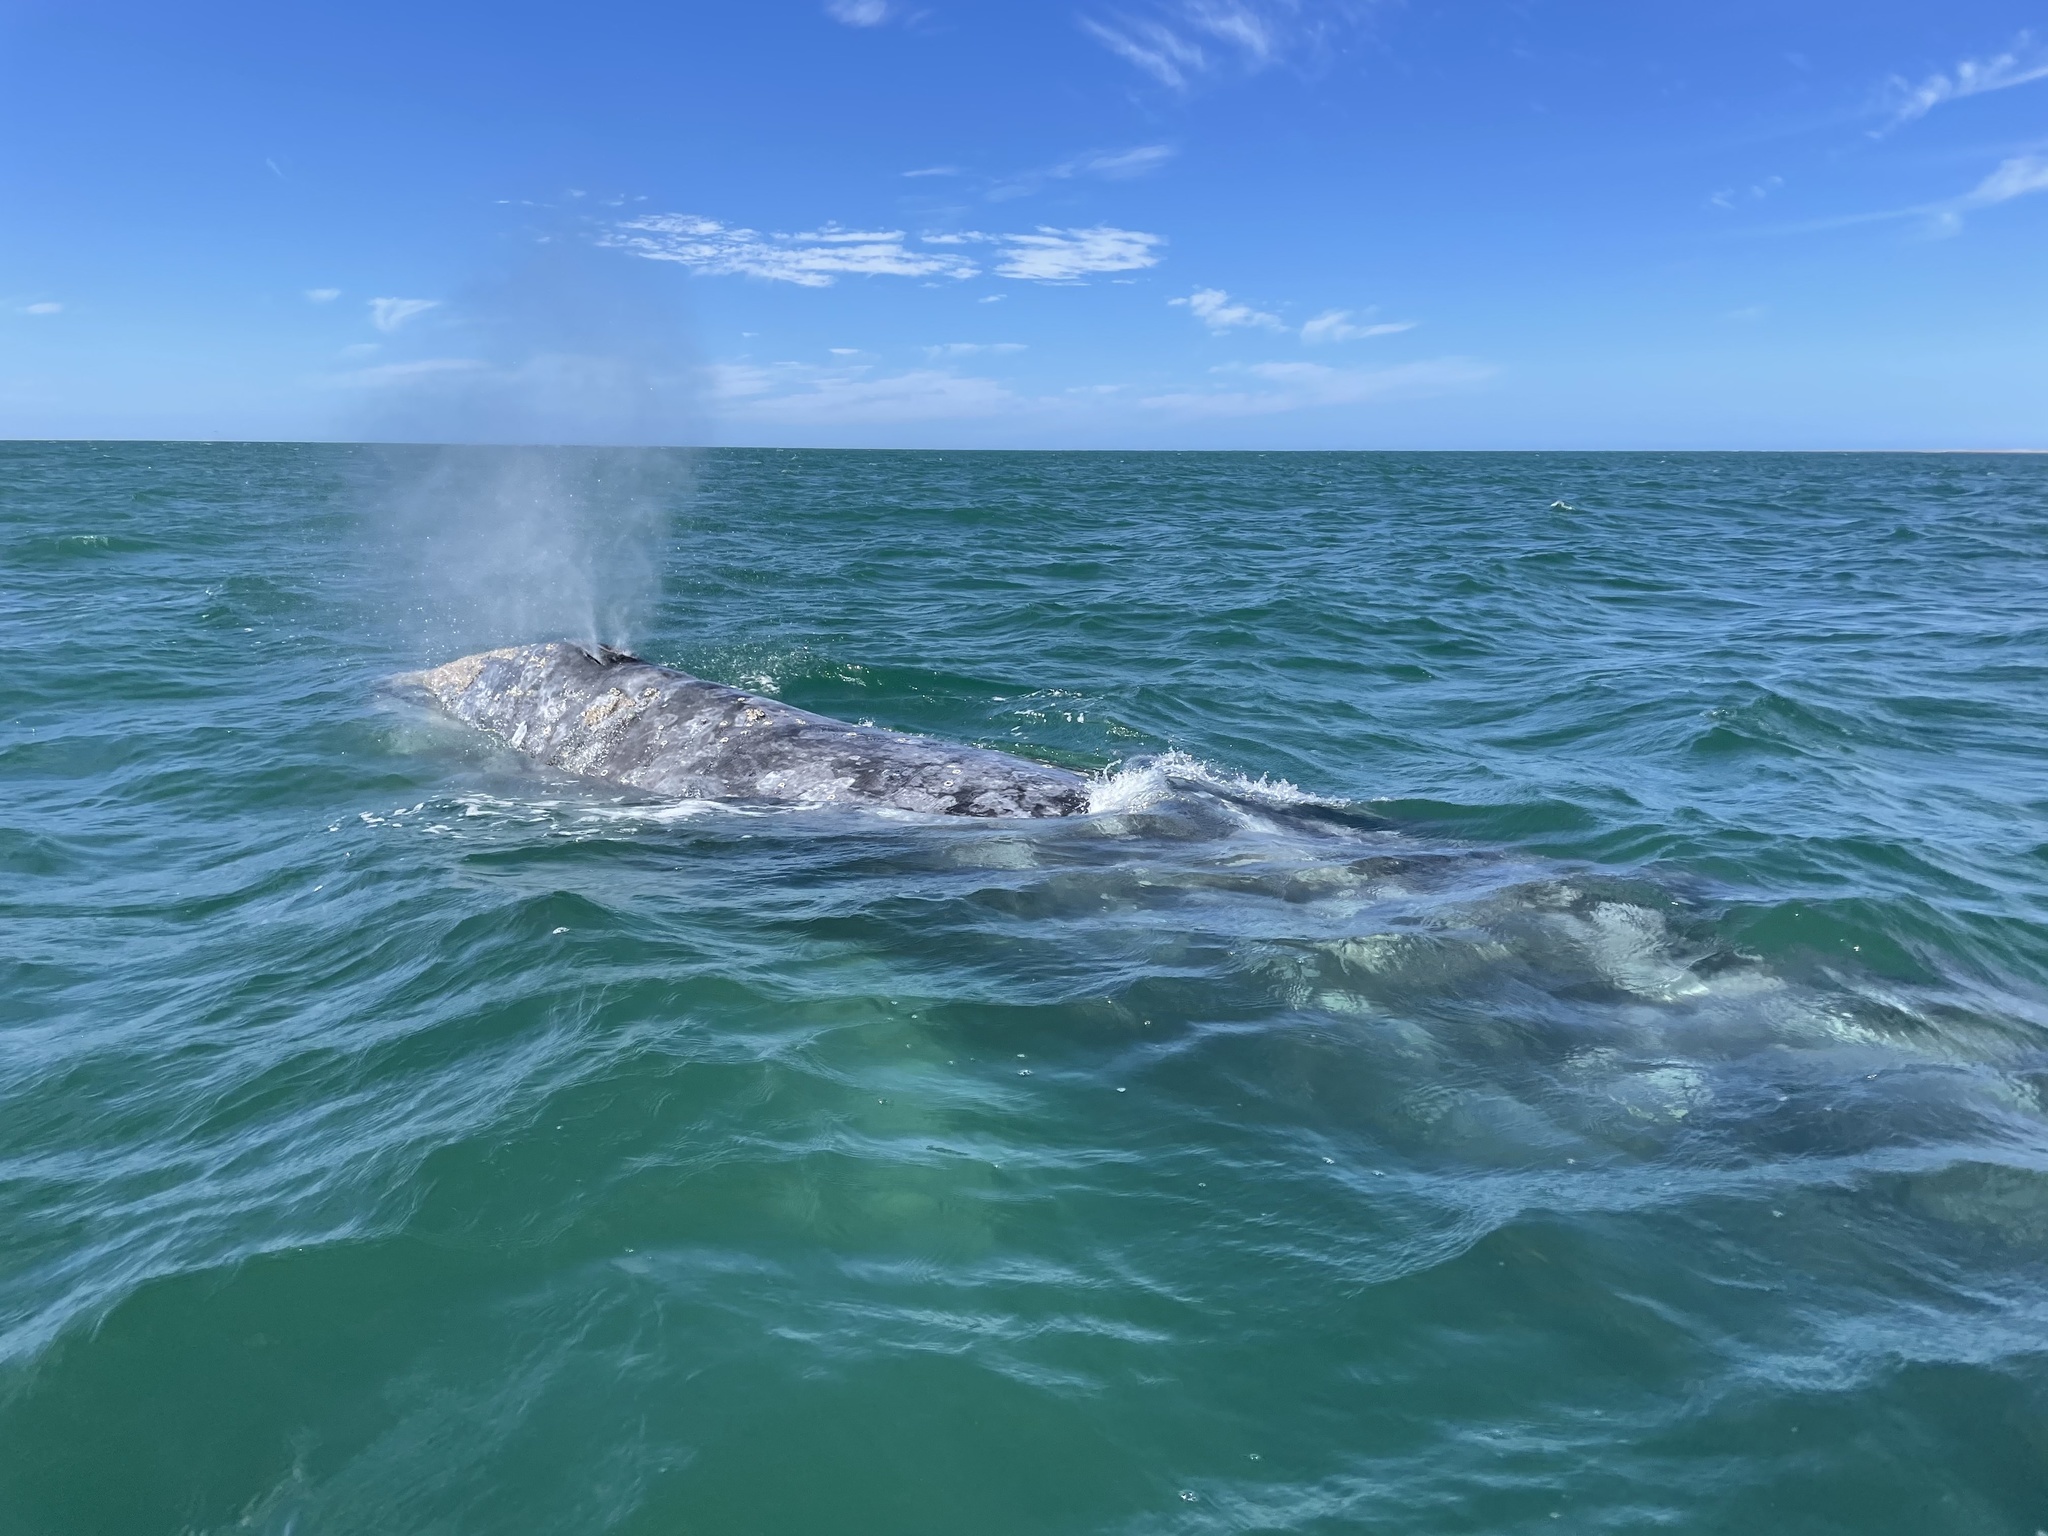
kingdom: Animalia
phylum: Chordata
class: Mammalia
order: Cetacea
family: Eschrichtiidae
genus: Eschrichtius
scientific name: Eschrichtius robustus
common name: Gray whale
